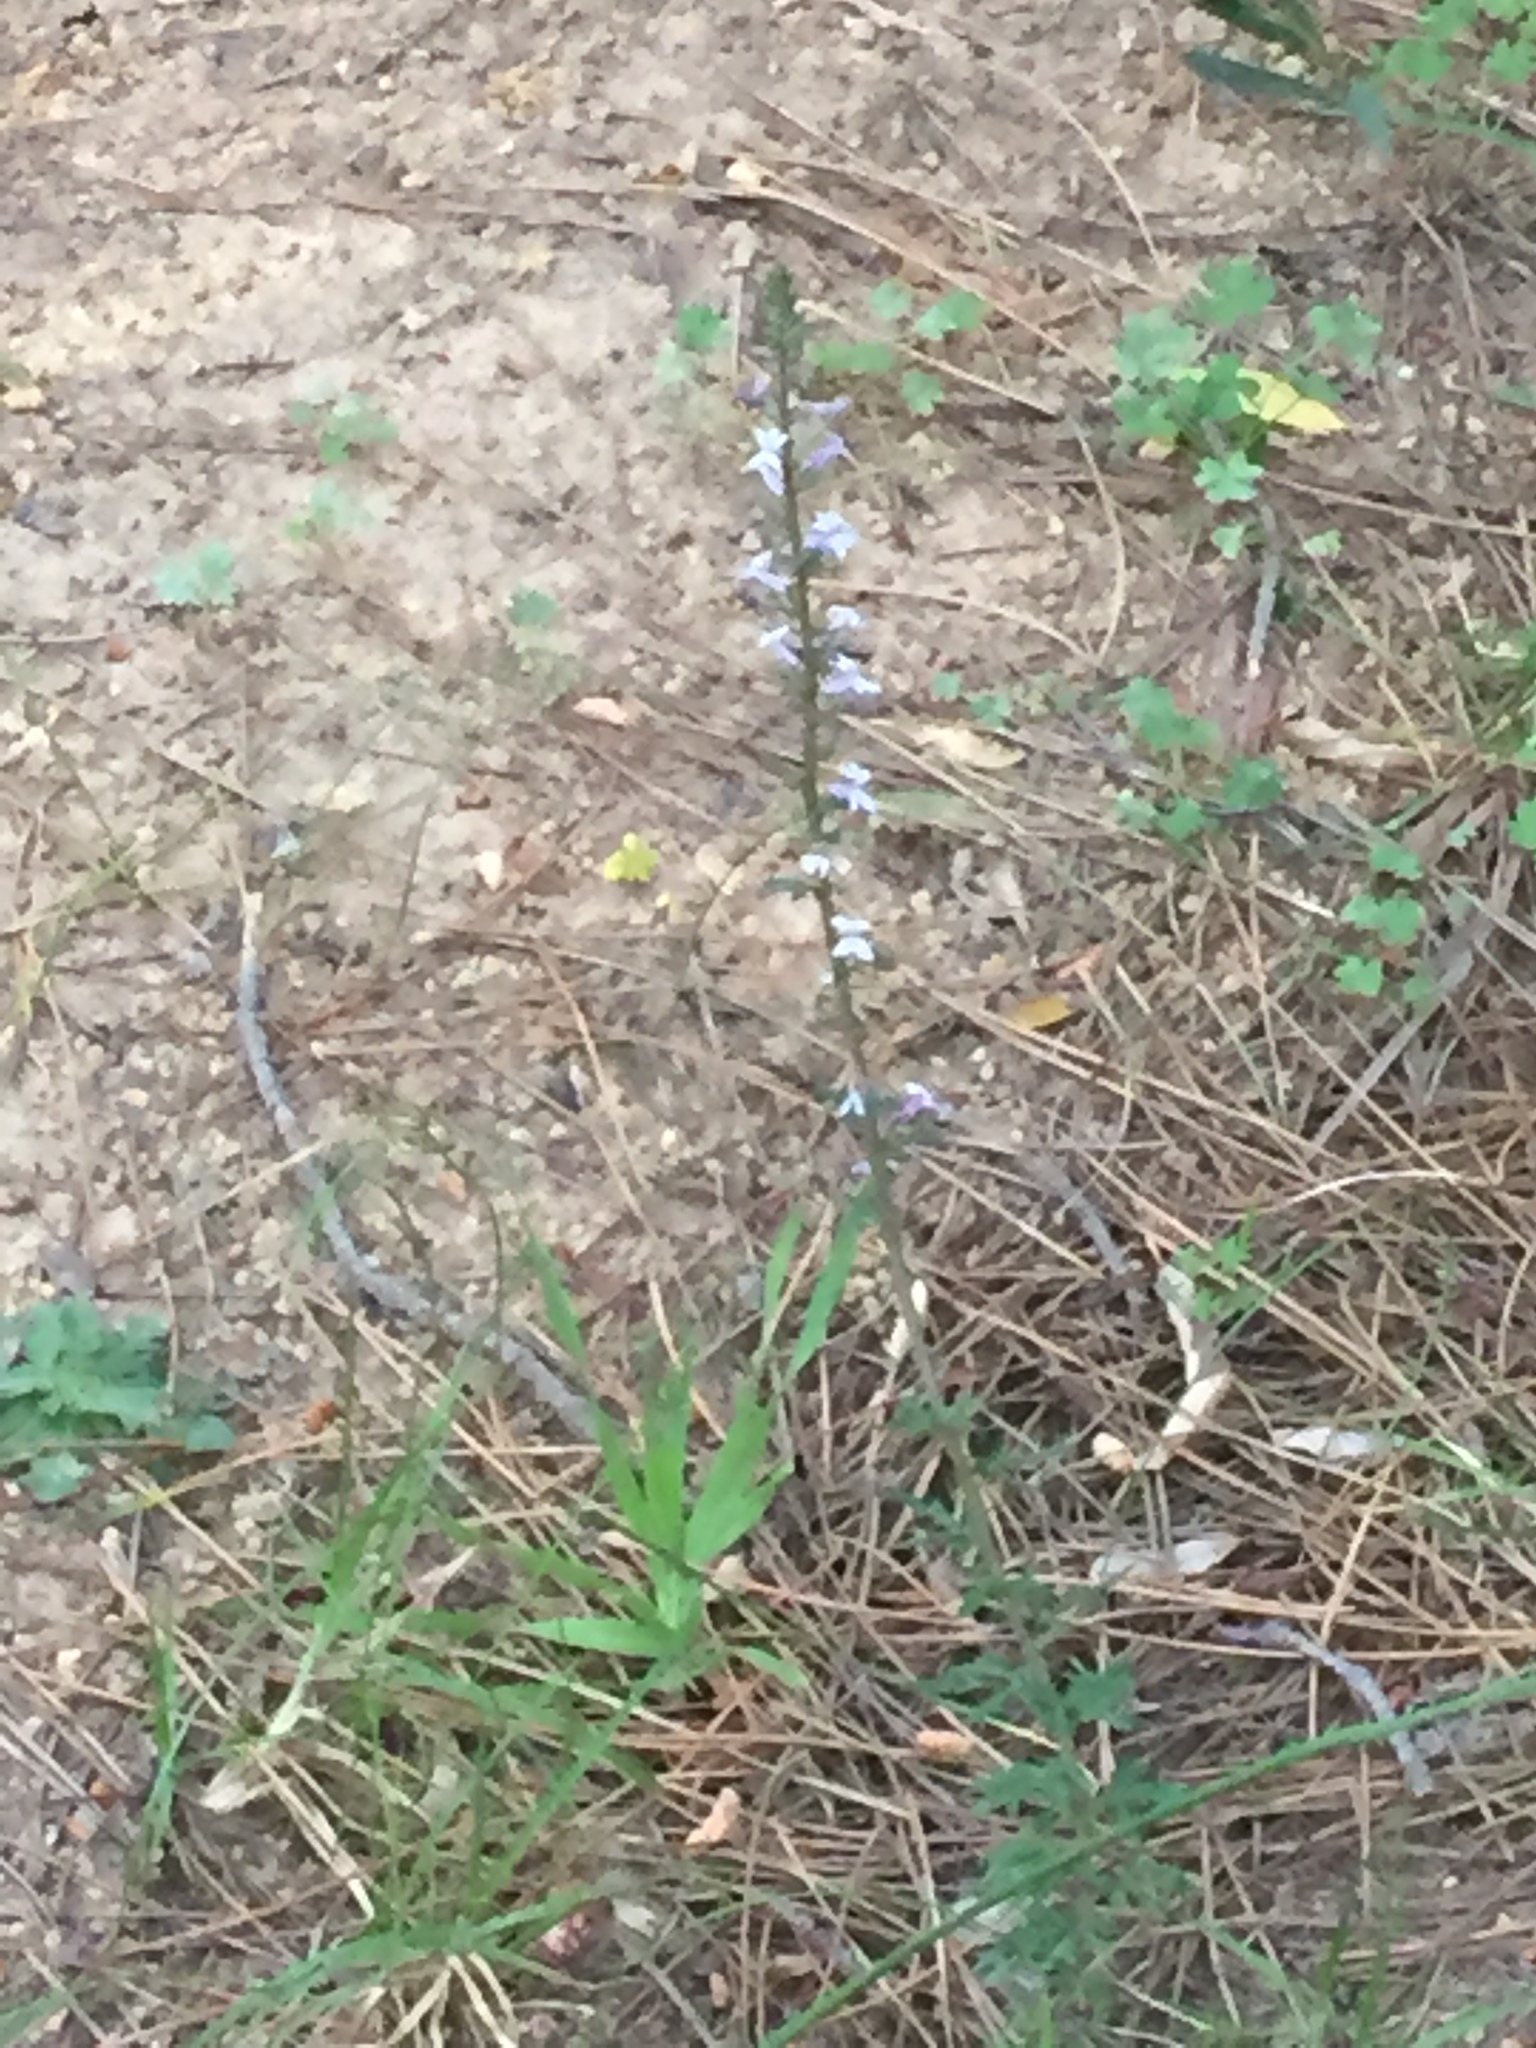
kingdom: Plantae
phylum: Tracheophyta
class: Magnoliopsida
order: Asterales
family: Campanulaceae
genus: Cyphia
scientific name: Cyphia bulbosa
